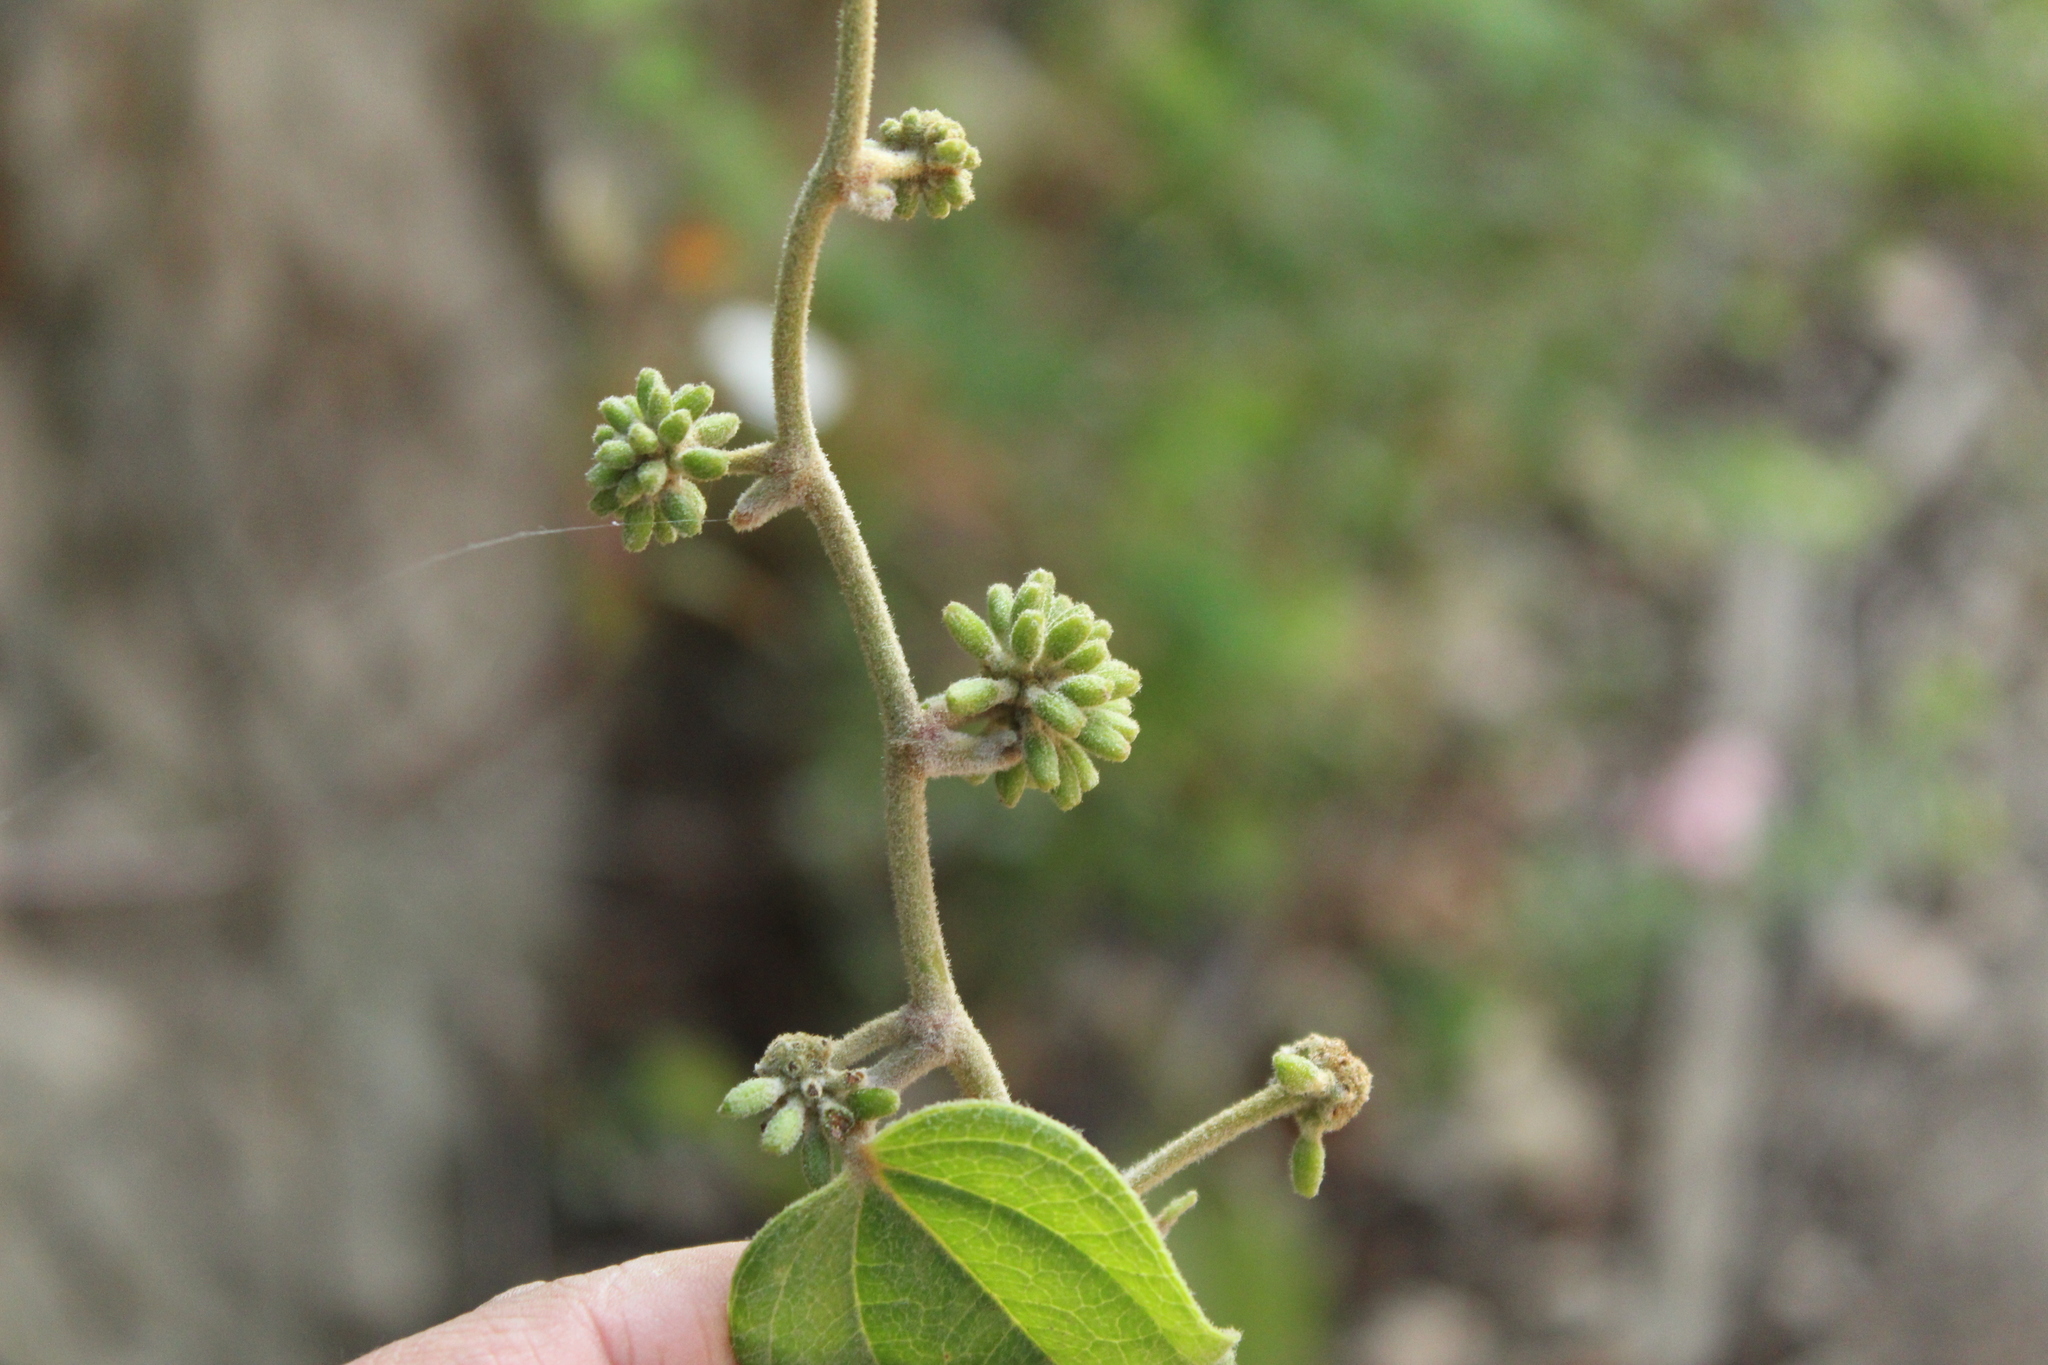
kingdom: Plantae
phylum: Tracheophyta
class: Liliopsida
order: Liliales
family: Smilacaceae
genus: Smilax
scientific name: Smilax tomentosa
